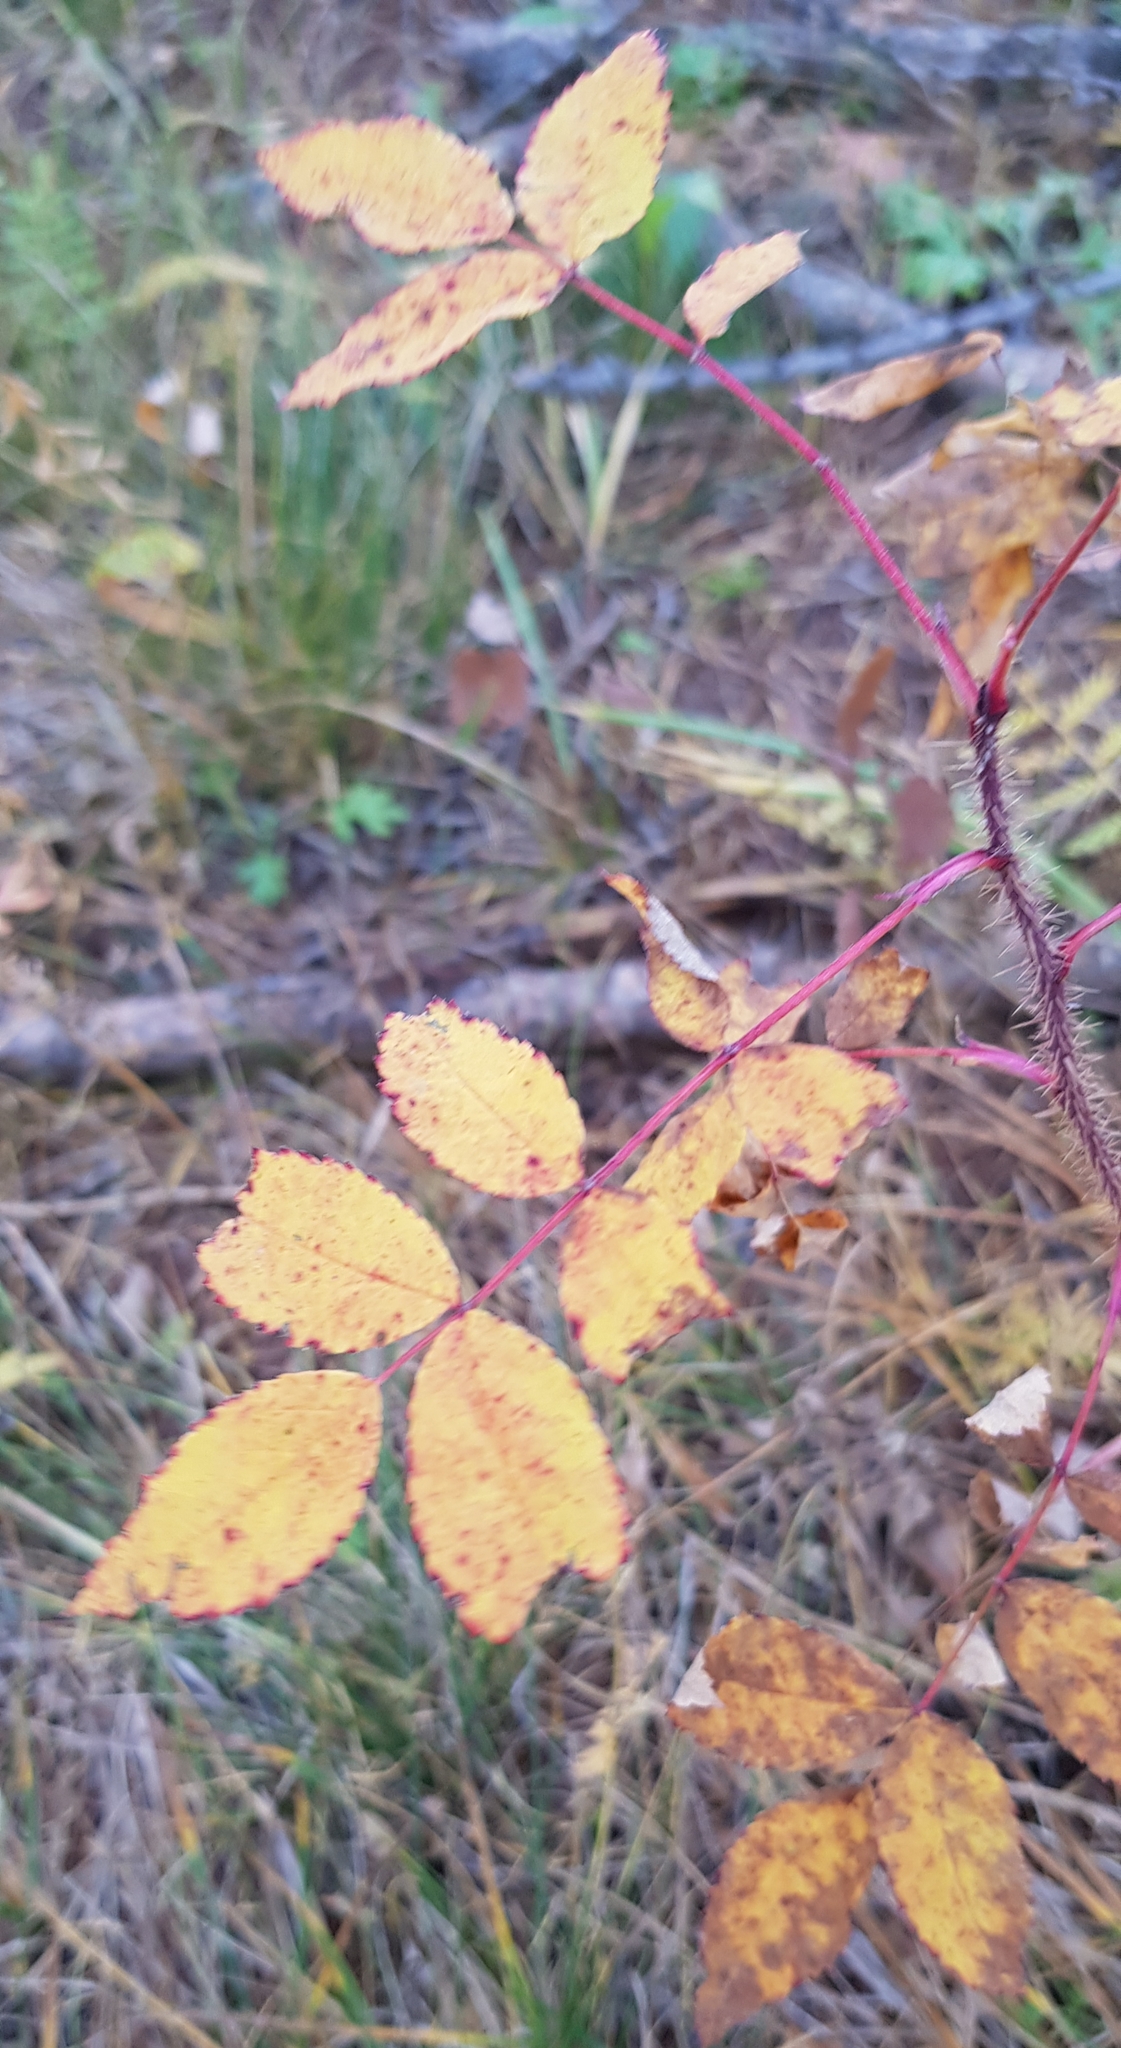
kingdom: Plantae
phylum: Tracheophyta
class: Magnoliopsida
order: Rosales
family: Rosaceae
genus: Rosa
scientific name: Rosa acicularis
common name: Prickly rose
